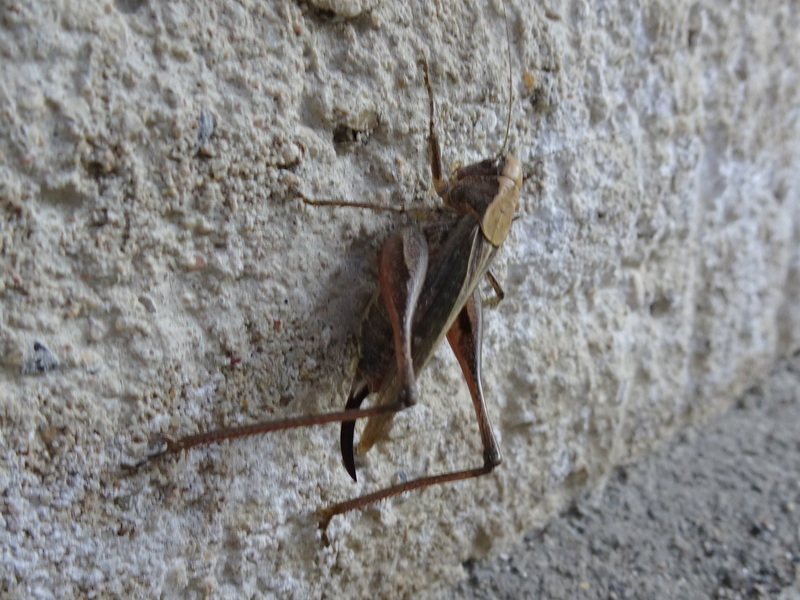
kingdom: Animalia
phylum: Arthropoda
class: Insecta
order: Orthoptera
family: Tettigoniidae
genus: Platycleis
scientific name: Platycleis albopunctata
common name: Grey bush-cricket
